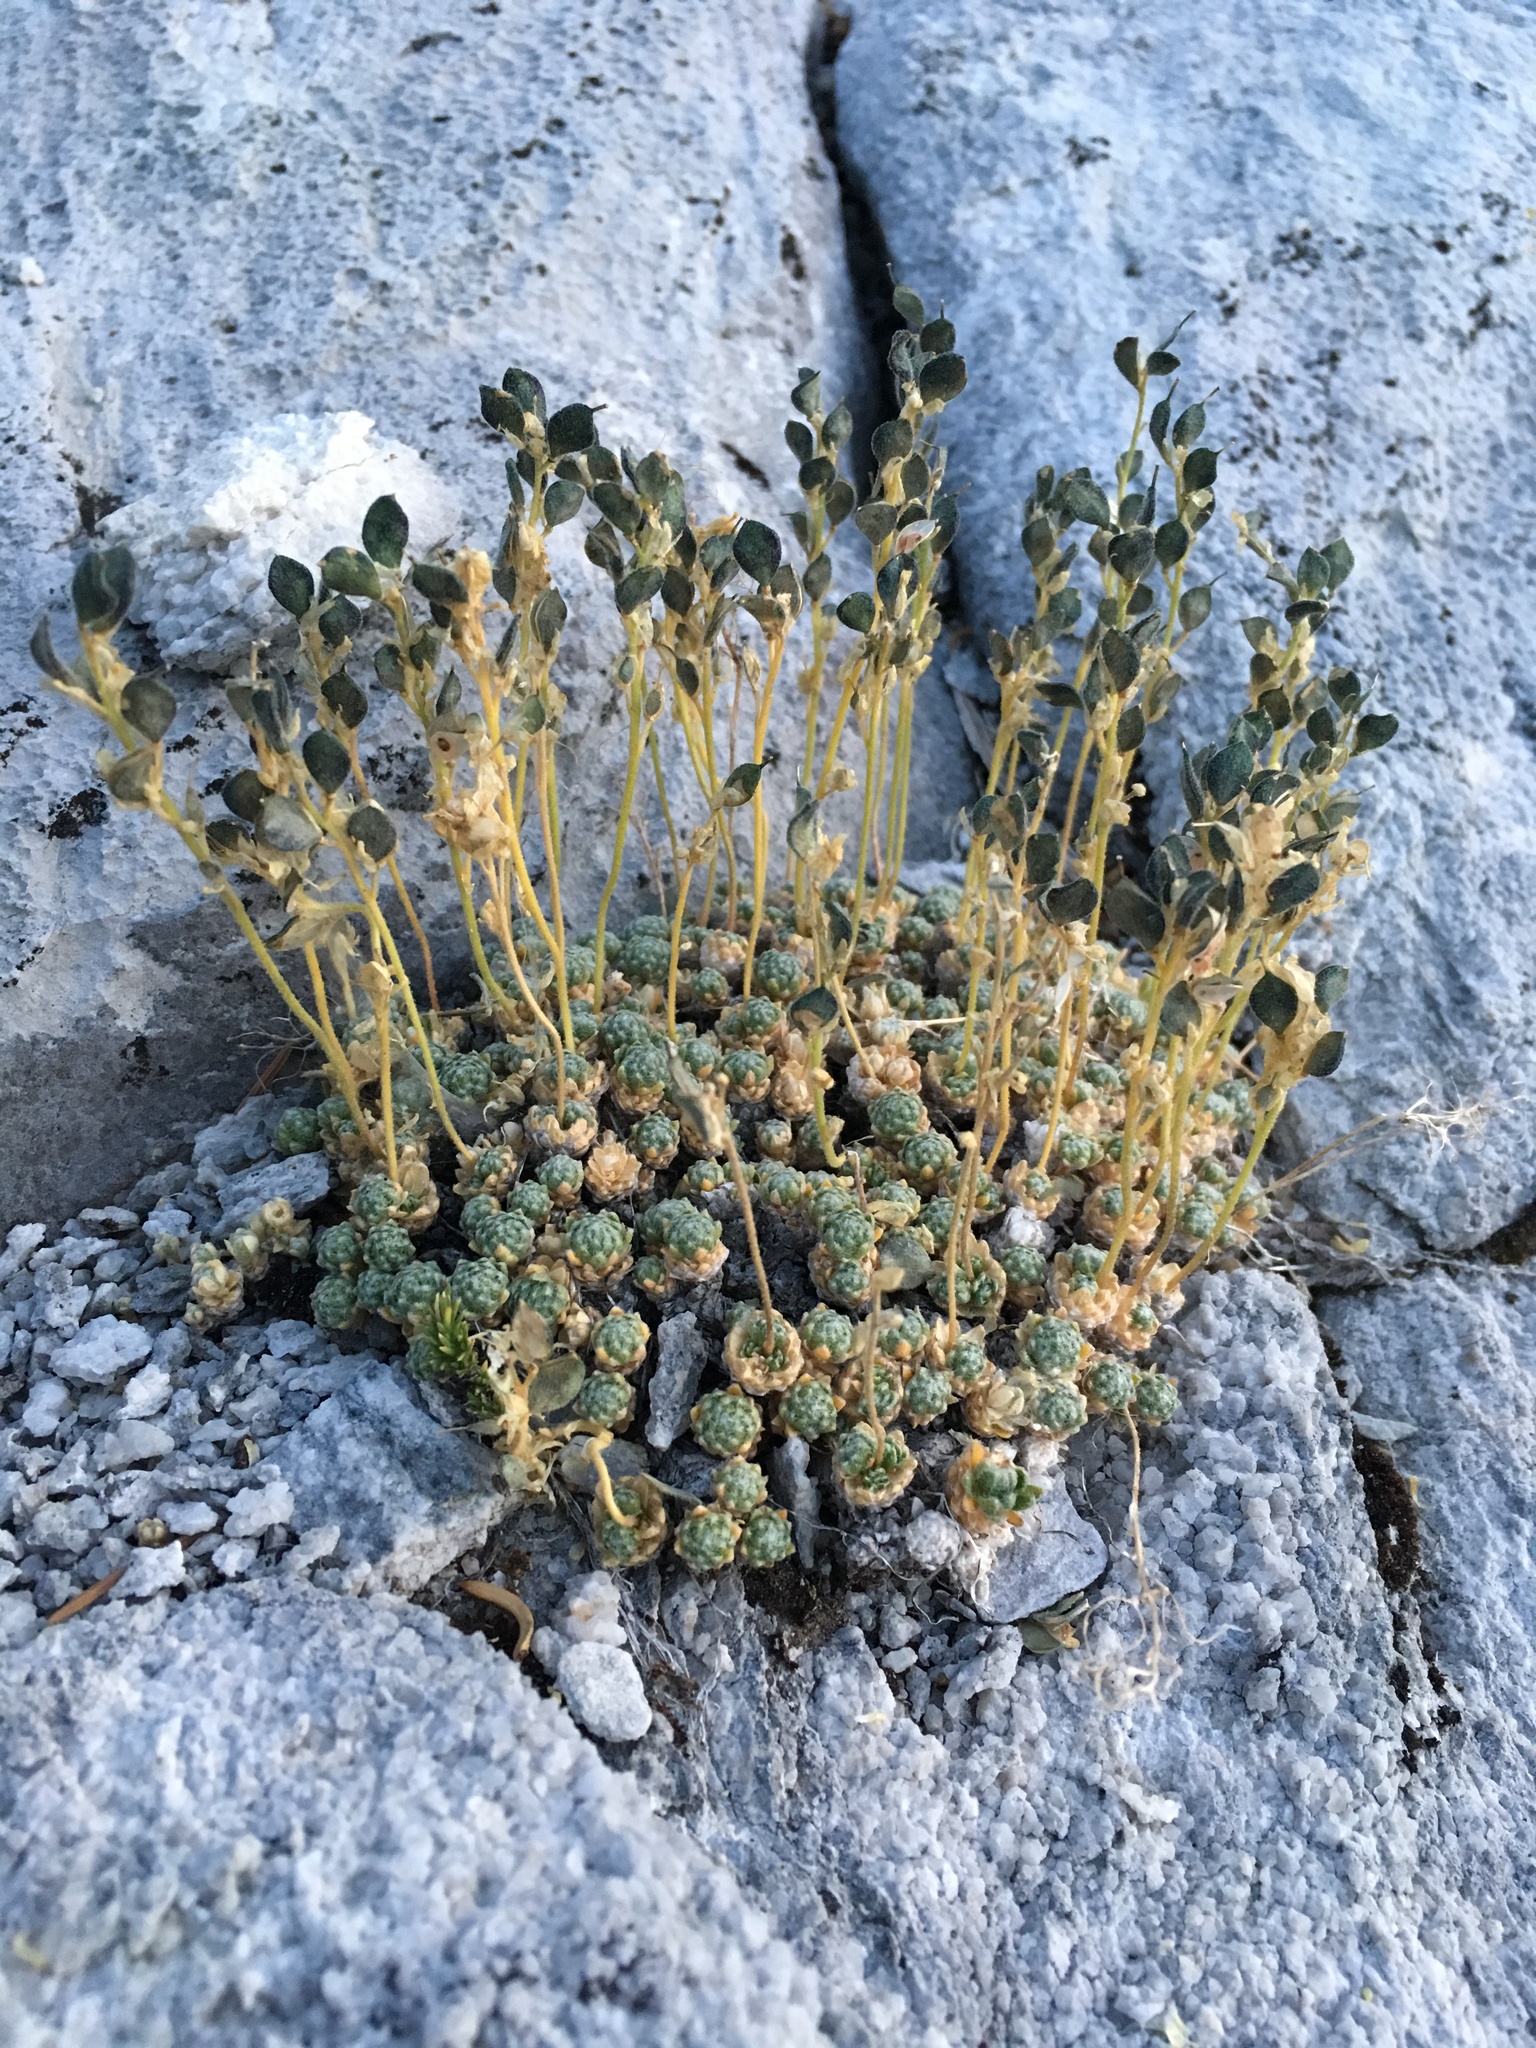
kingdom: Plantae
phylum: Tracheophyta
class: Magnoliopsida
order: Brassicales
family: Brassicaceae
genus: Draba
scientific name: Draba pterosperma
